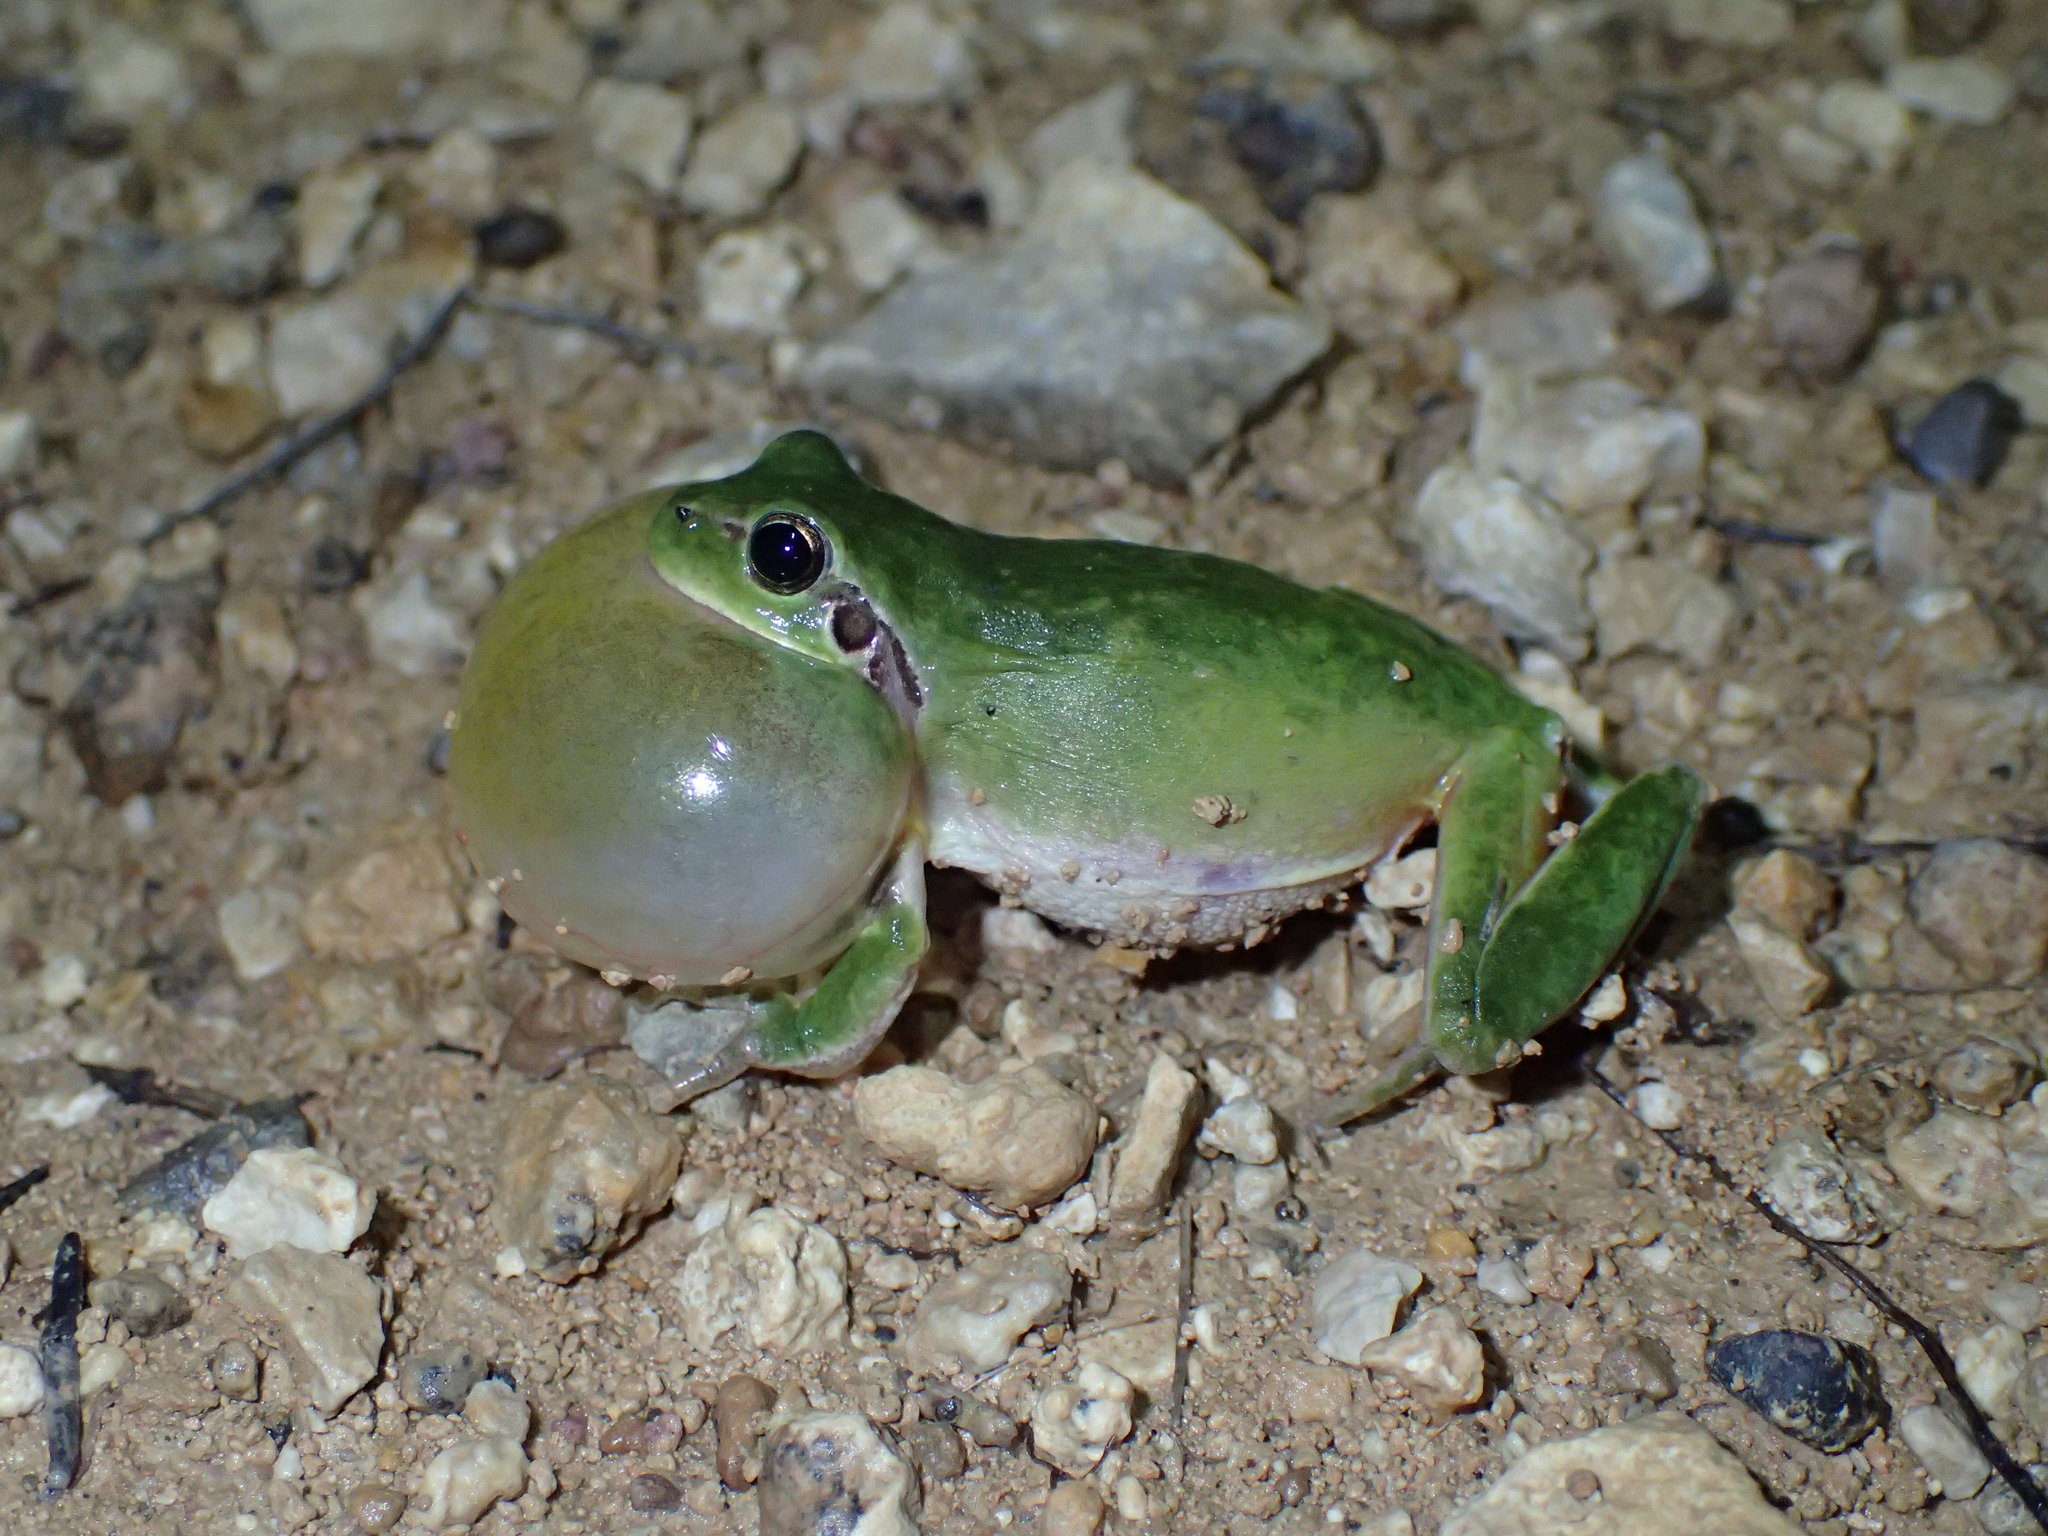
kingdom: Animalia
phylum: Chordata
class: Amphibia
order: Anura
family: Hylidae
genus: Hyla
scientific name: Hyla meridionalis
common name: Stripeless tree frog
